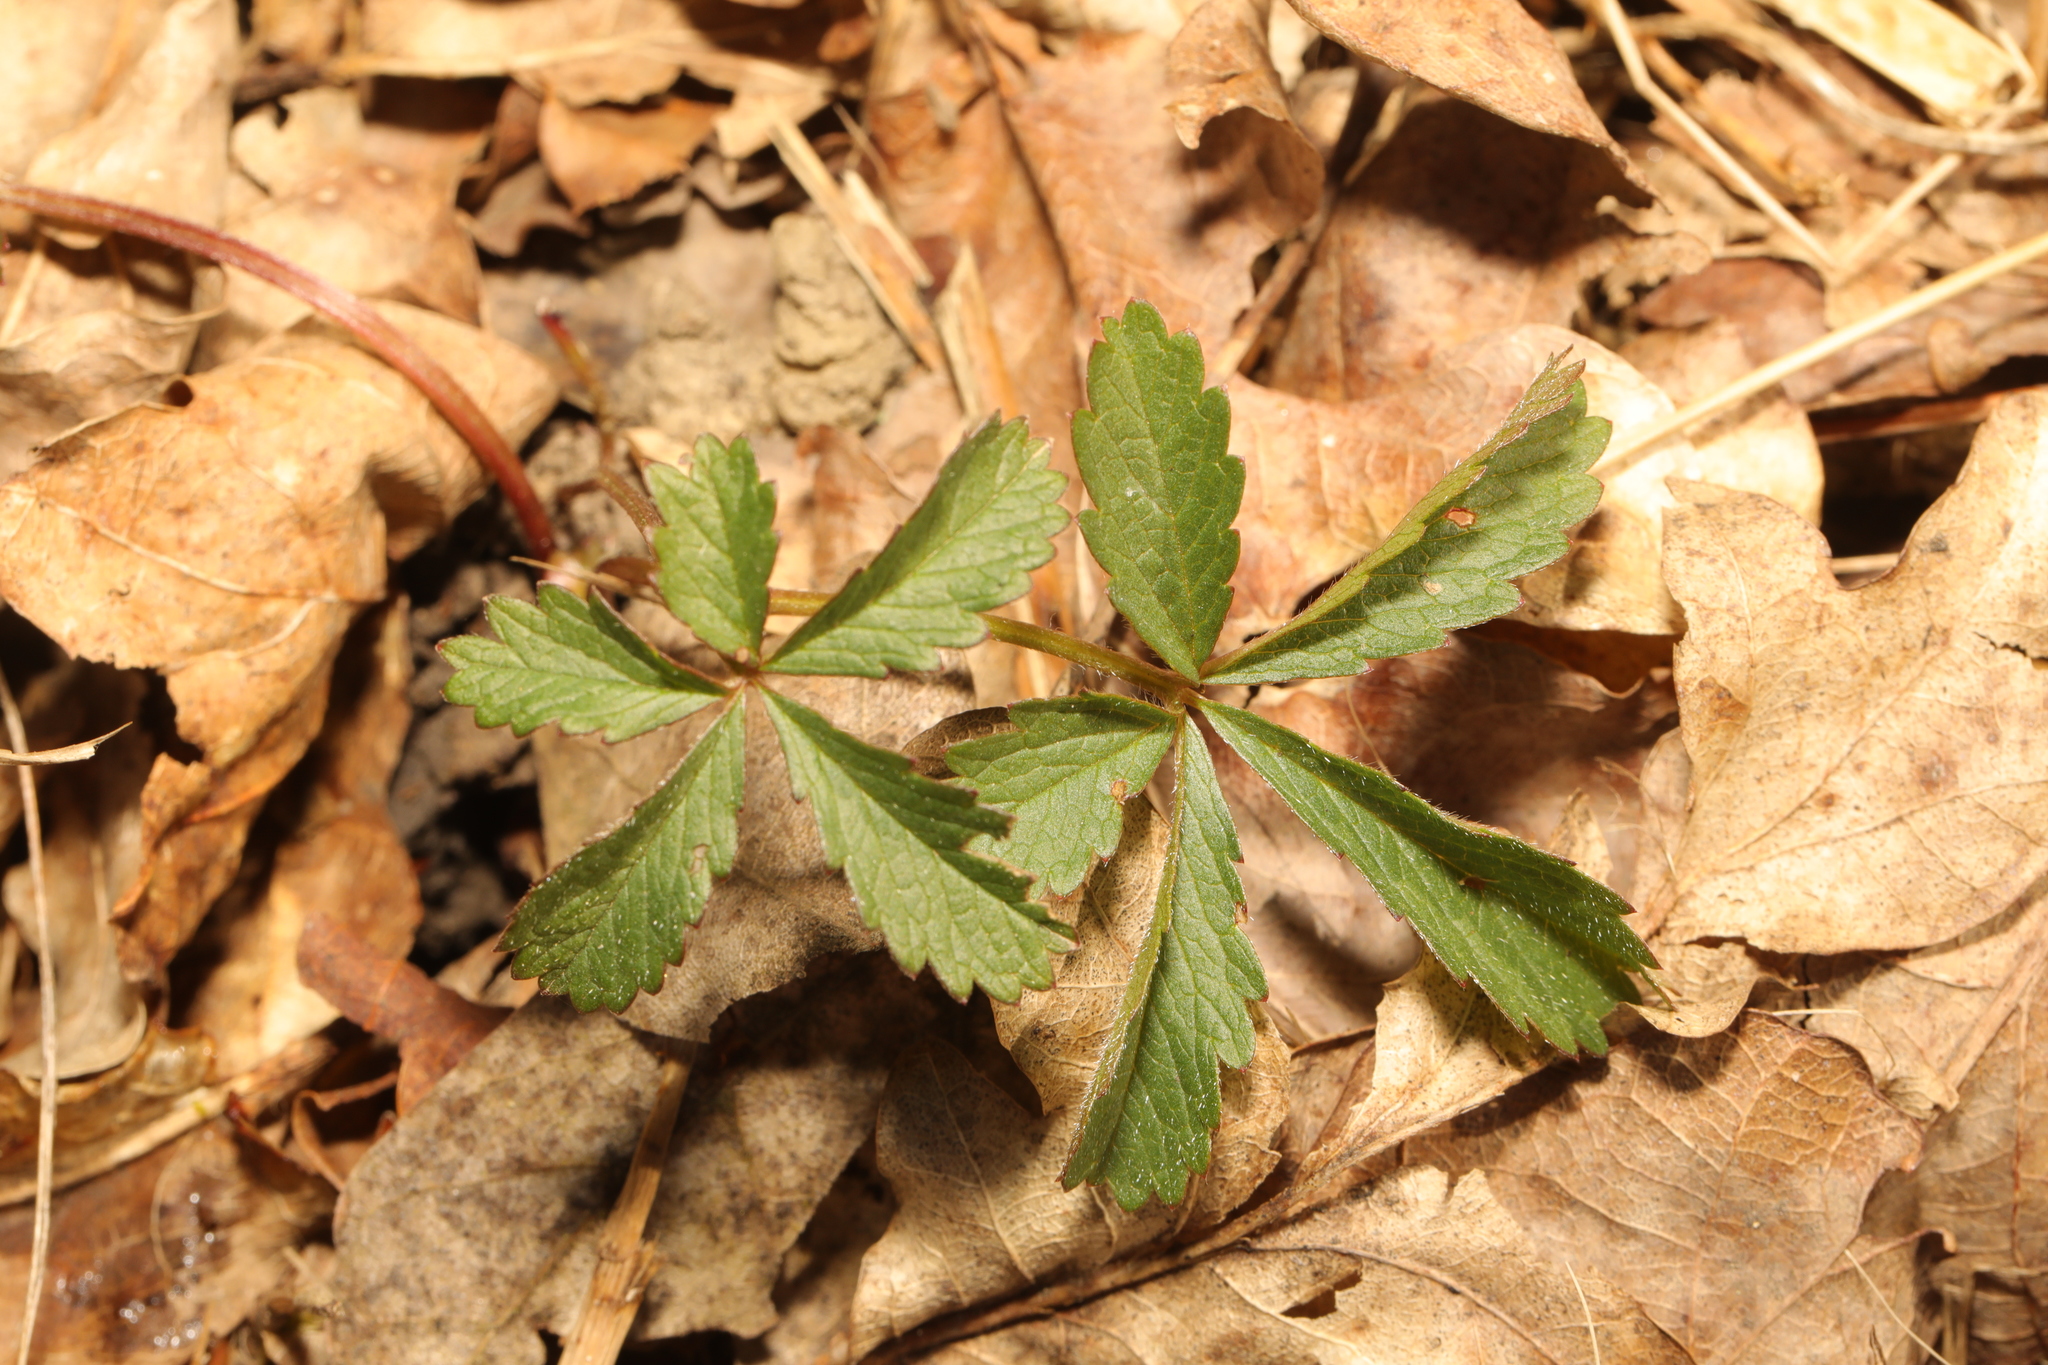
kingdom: Plantae
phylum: Tracheophyta
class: Magnoliopsida
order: Rosales
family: Rosaceae
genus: Potentilla
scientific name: Potentilla reptans
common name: Creeping cinquefoil
